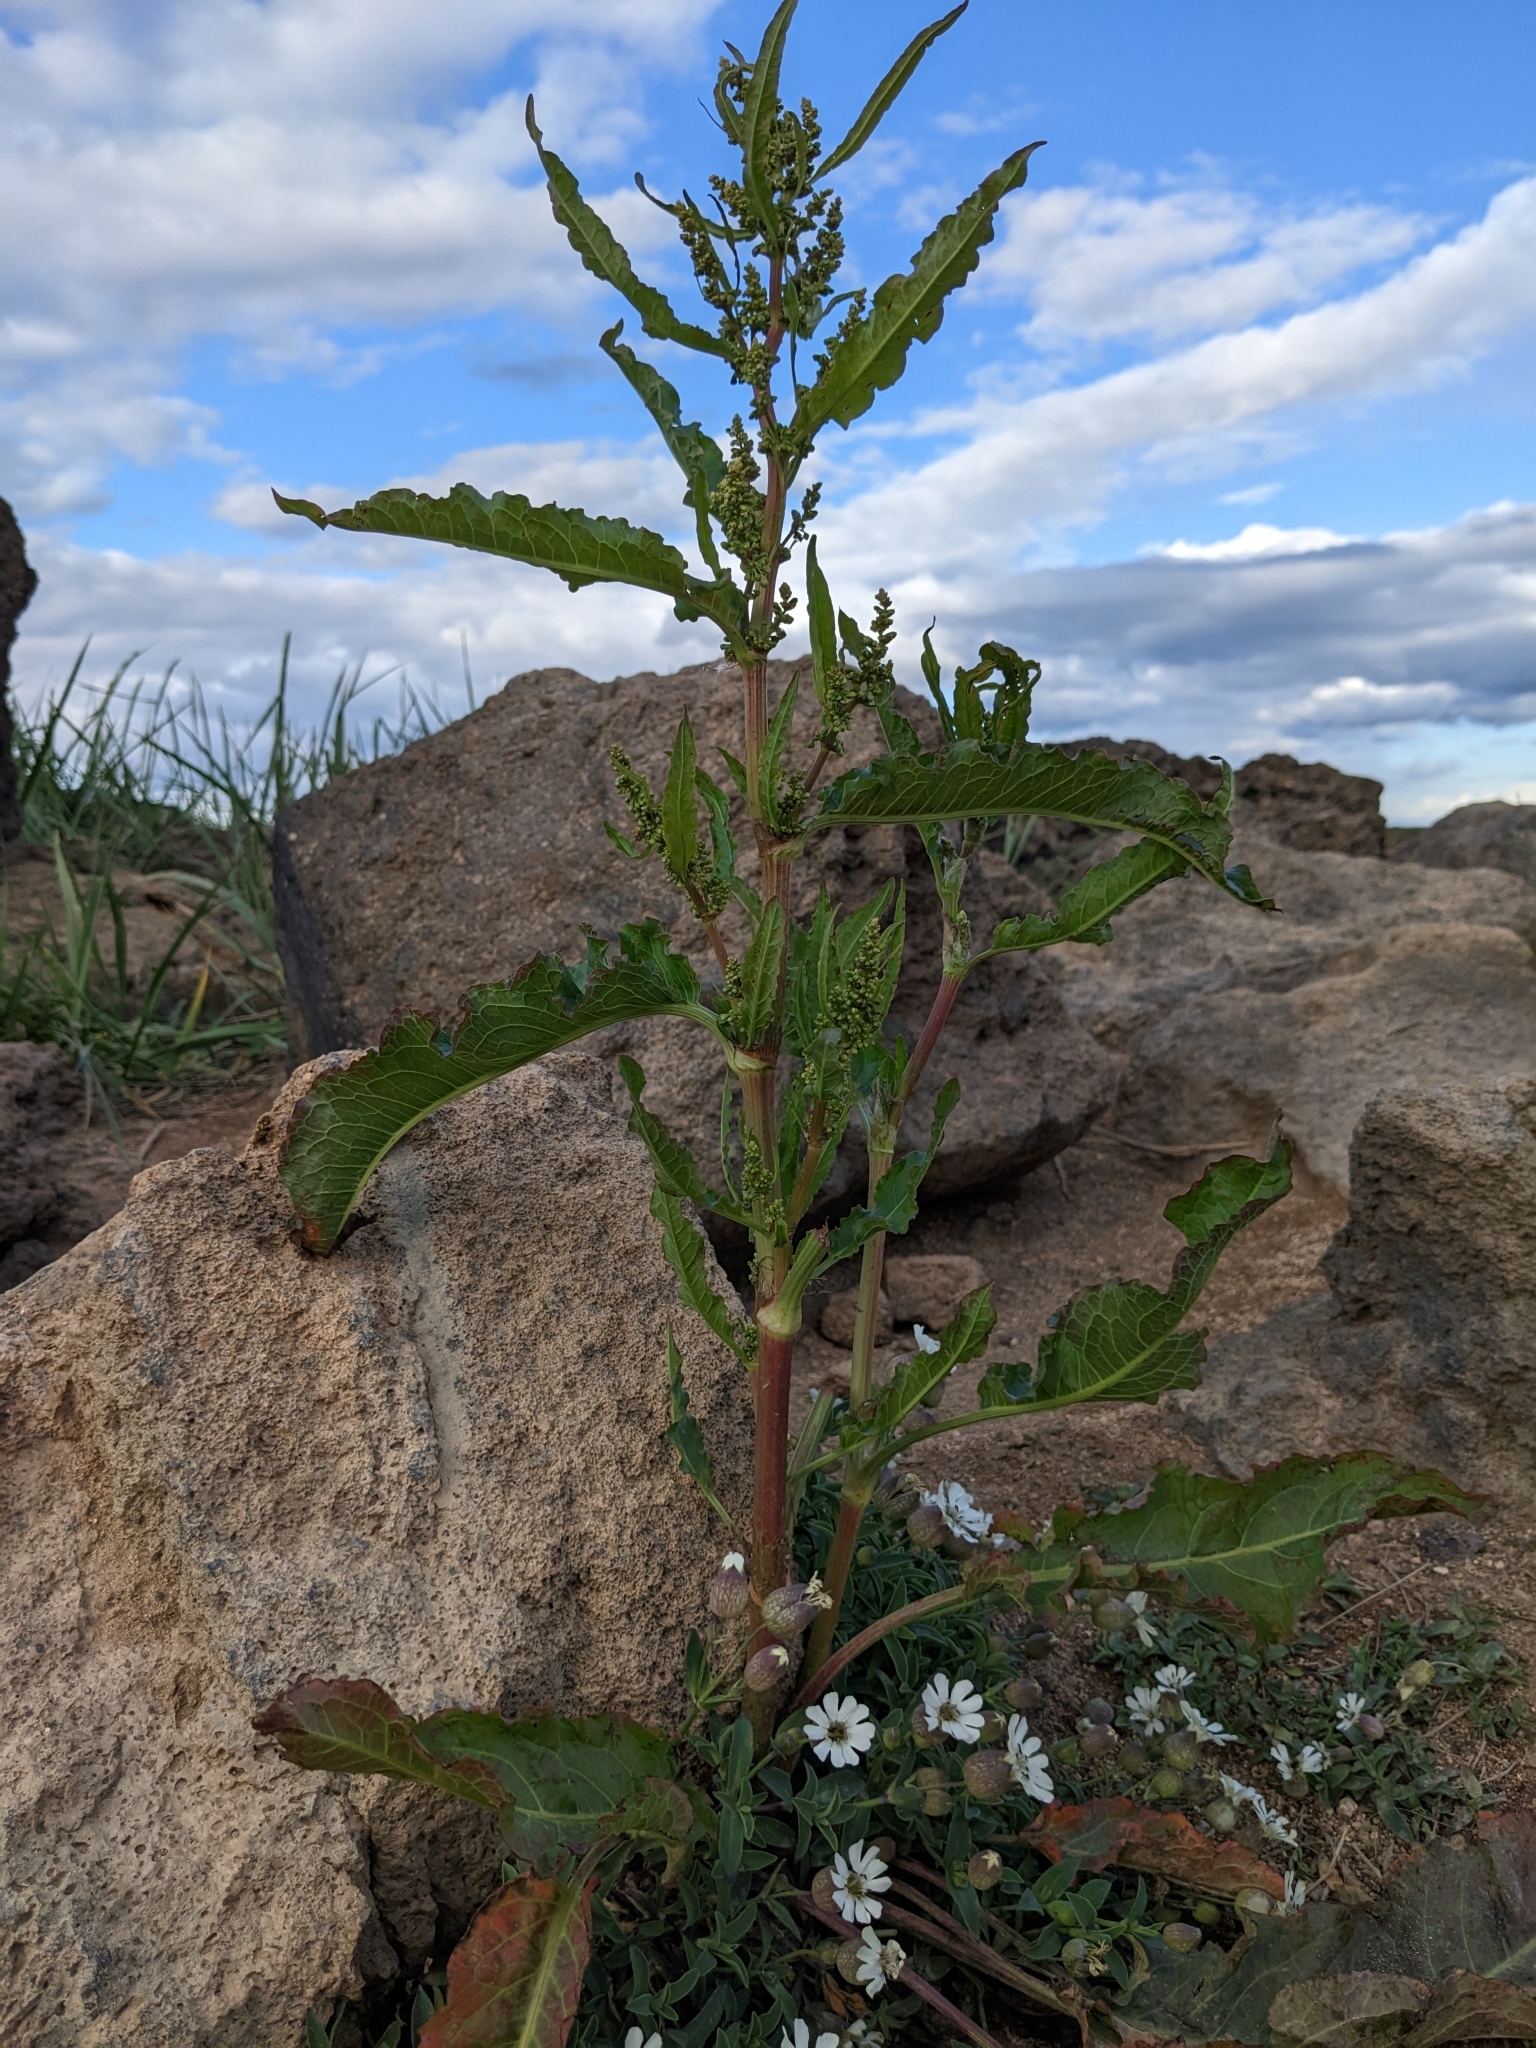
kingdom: Plantae
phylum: Tracheophyta
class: Magnoliopsida
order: Caryophyllales
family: Caryophyllaceae
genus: Silene
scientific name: Silene uniflora
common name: Sea campion
